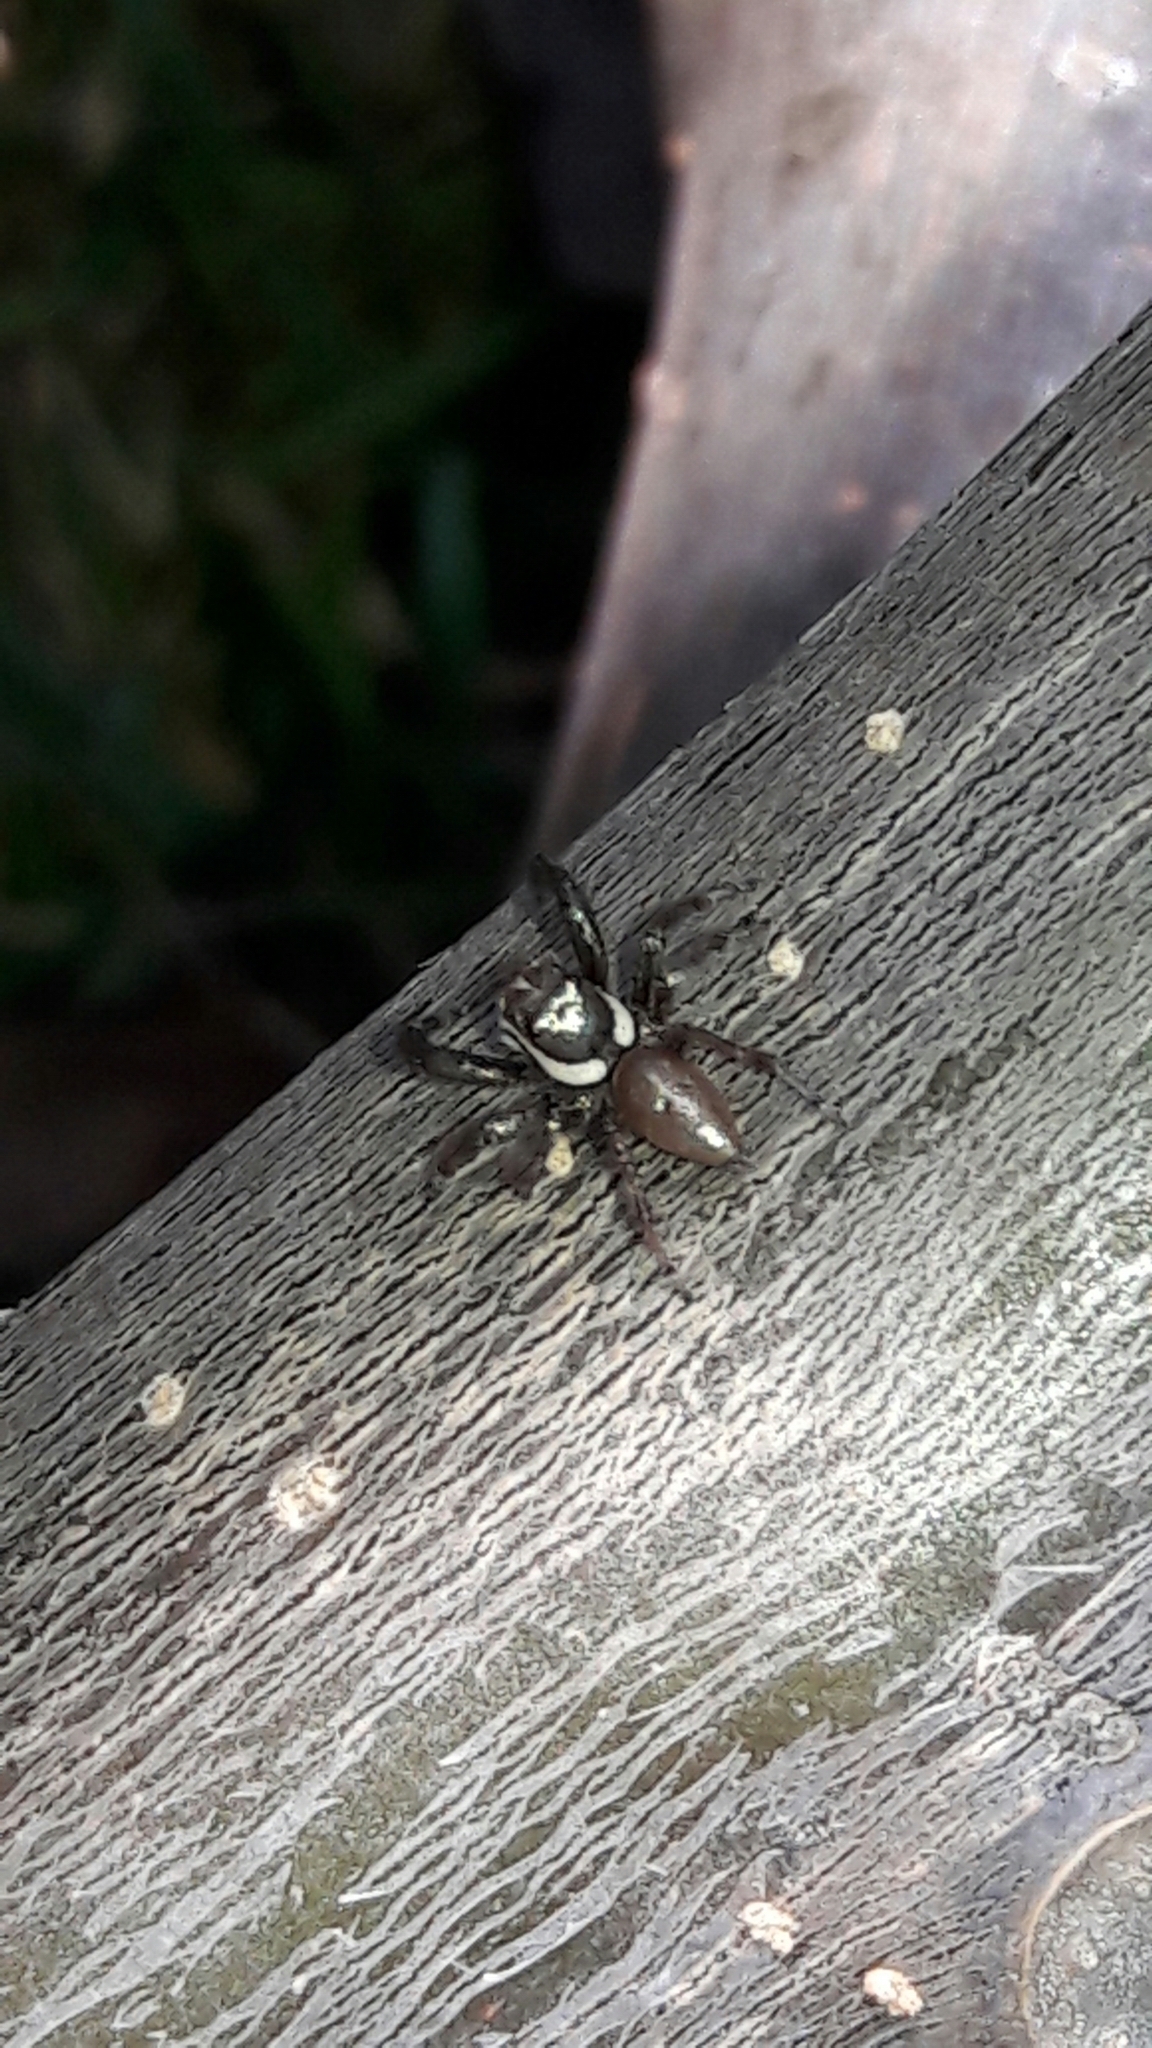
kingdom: Animalia
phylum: Arthropoda
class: Arachnida
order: Araneae
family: Salticidae
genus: Philira
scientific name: Philira micans
